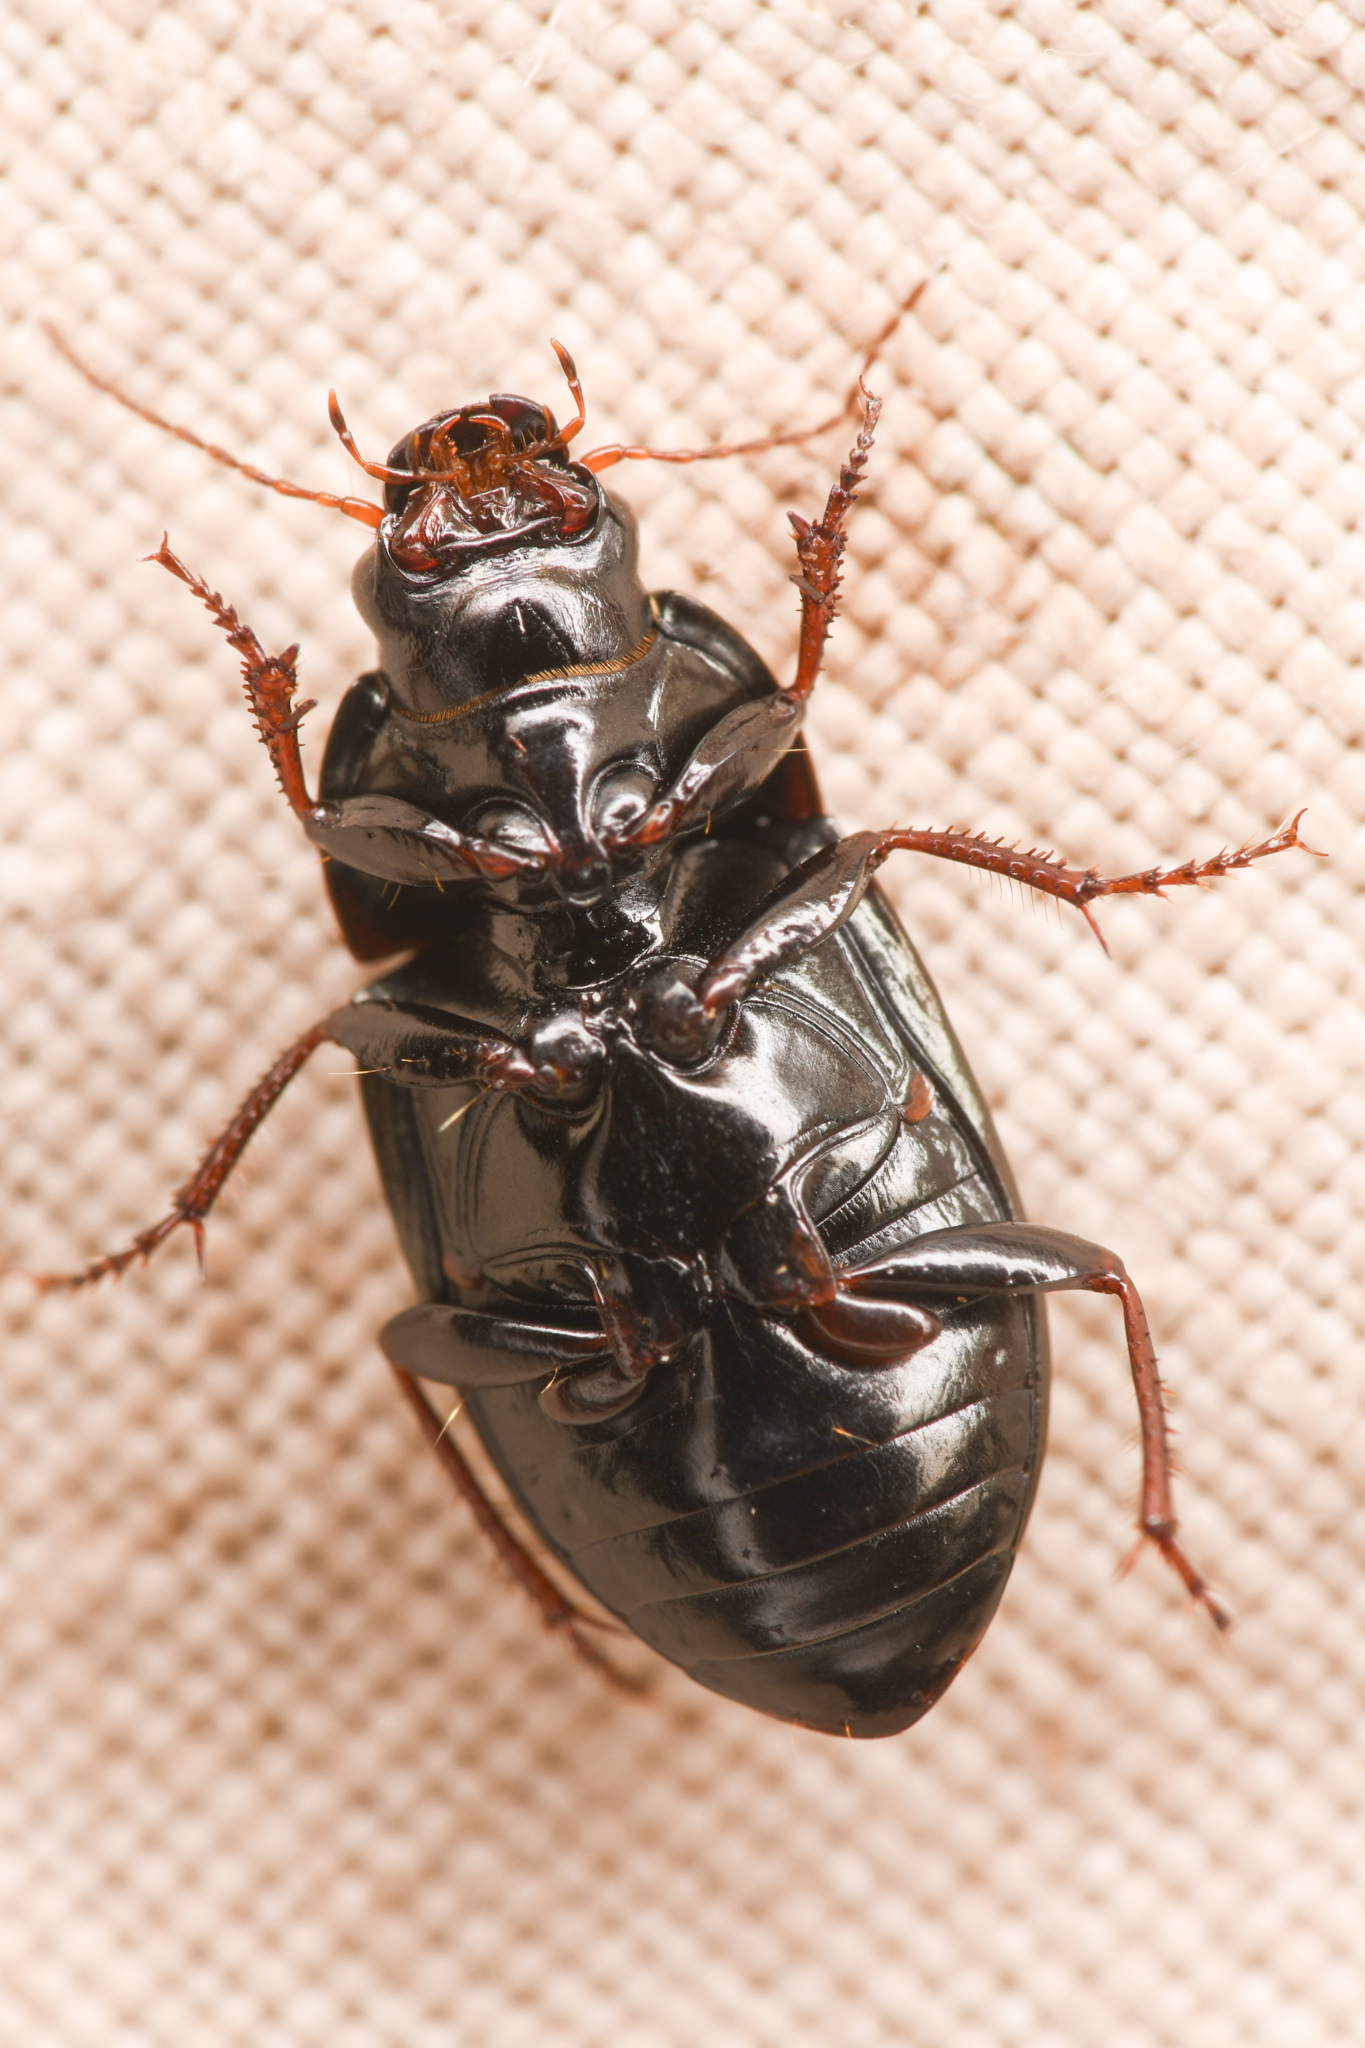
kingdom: Animalia
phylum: Arthropoda
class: Insecta
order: Coleoptera
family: Carabidae
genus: Amara
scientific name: Amara californica
